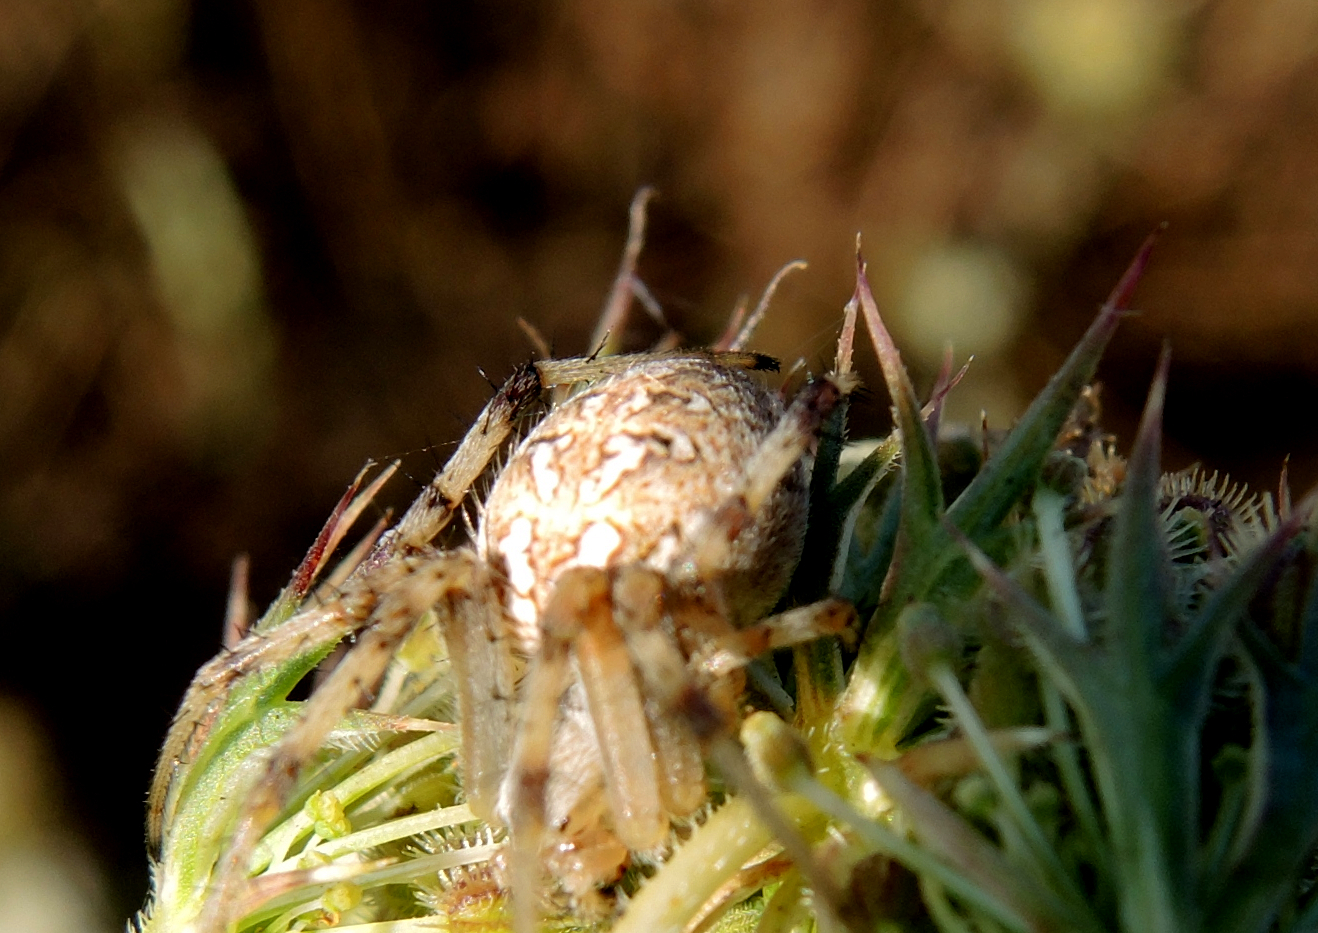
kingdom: Animalia
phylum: Arthropoda
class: Arachnida
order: Araneae
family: Araneidae
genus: Neoscona
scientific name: Neoscona byzanthina
